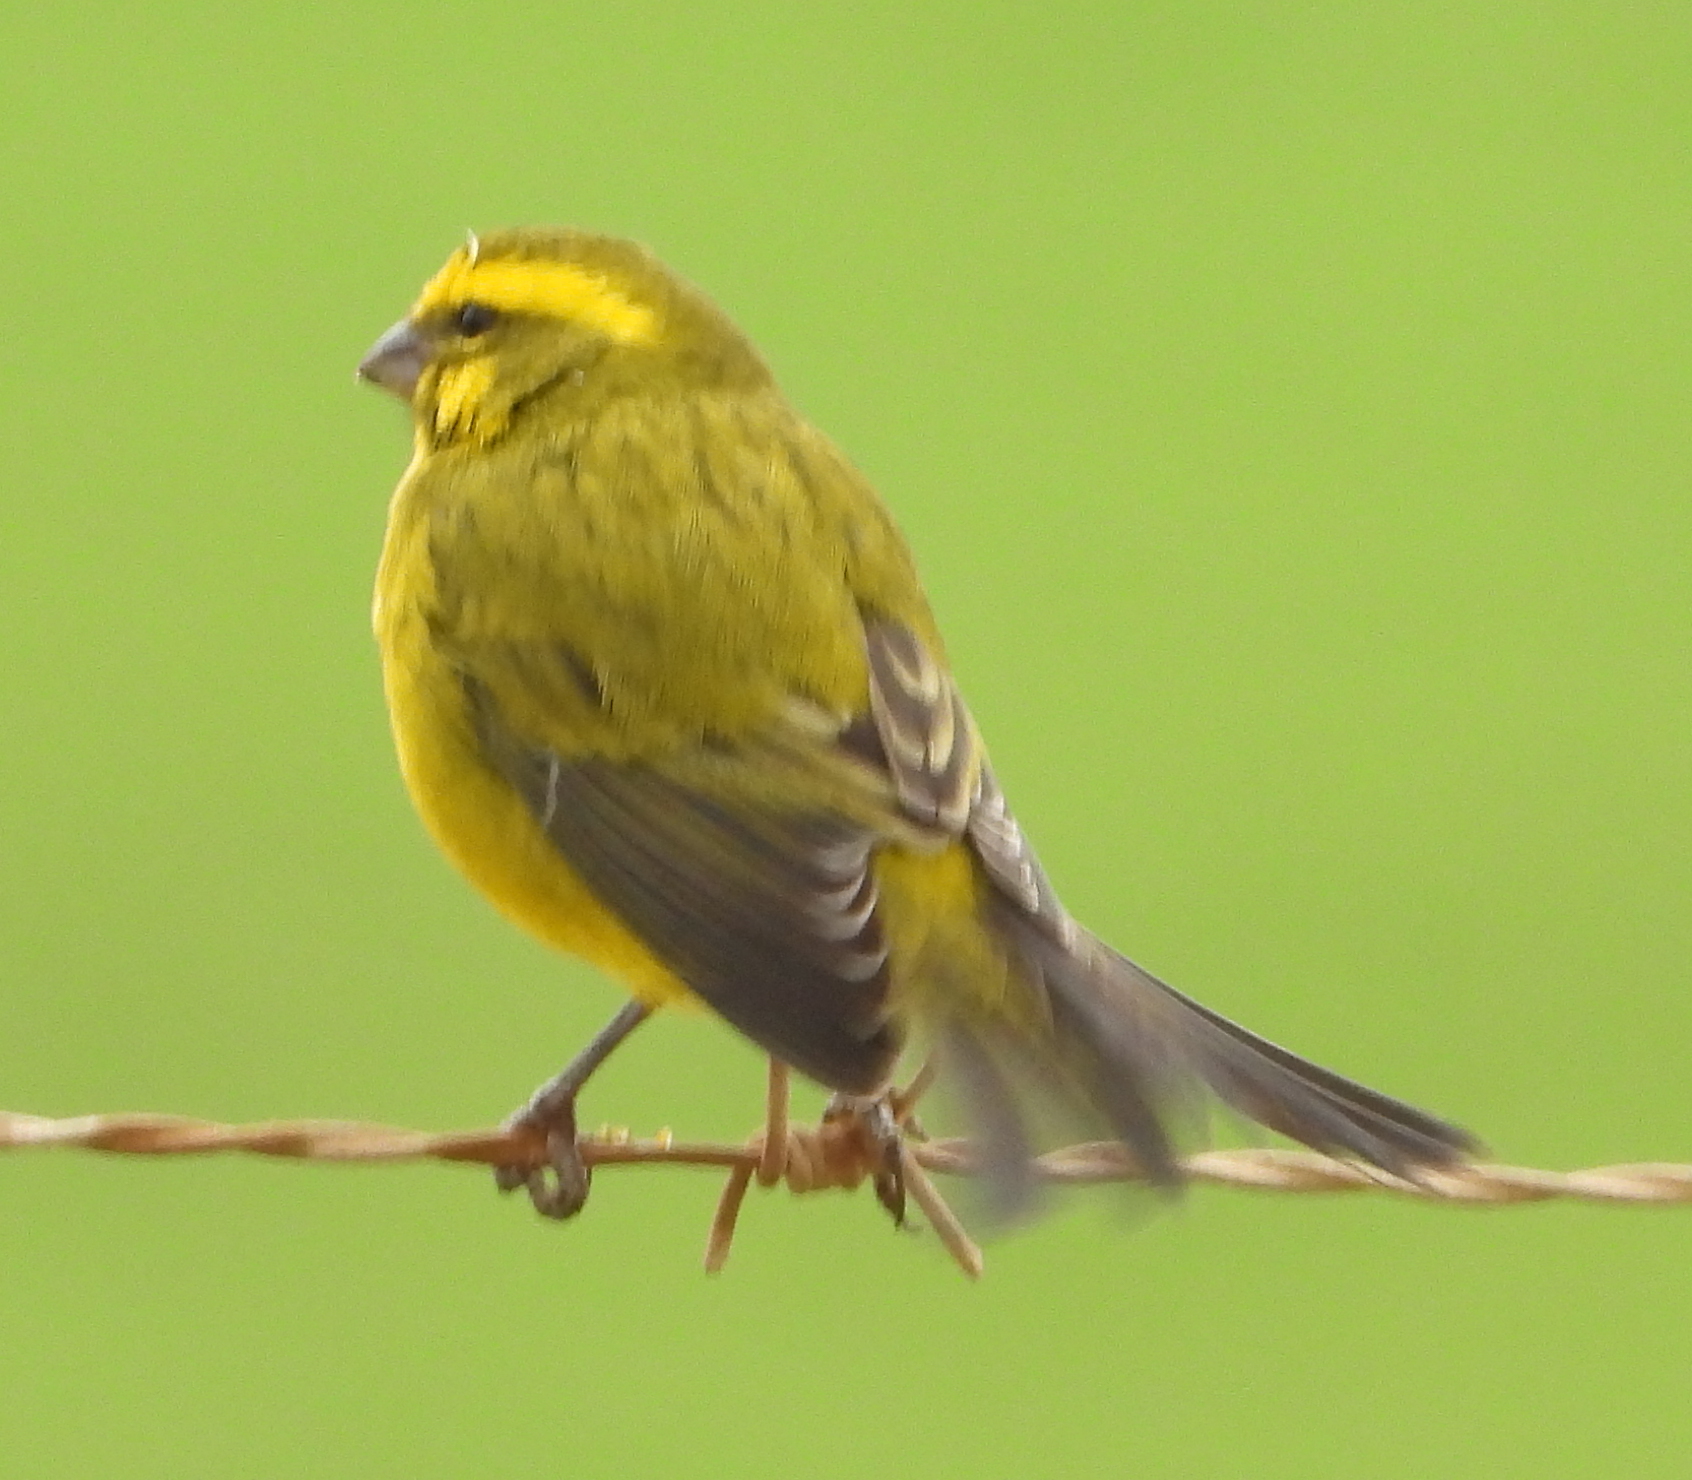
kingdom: Animalia
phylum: Chordata
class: Aves
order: Passeriformes
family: Fringillidae
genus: Crithagra
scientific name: Crithagra flaviventris
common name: Yellow canary
